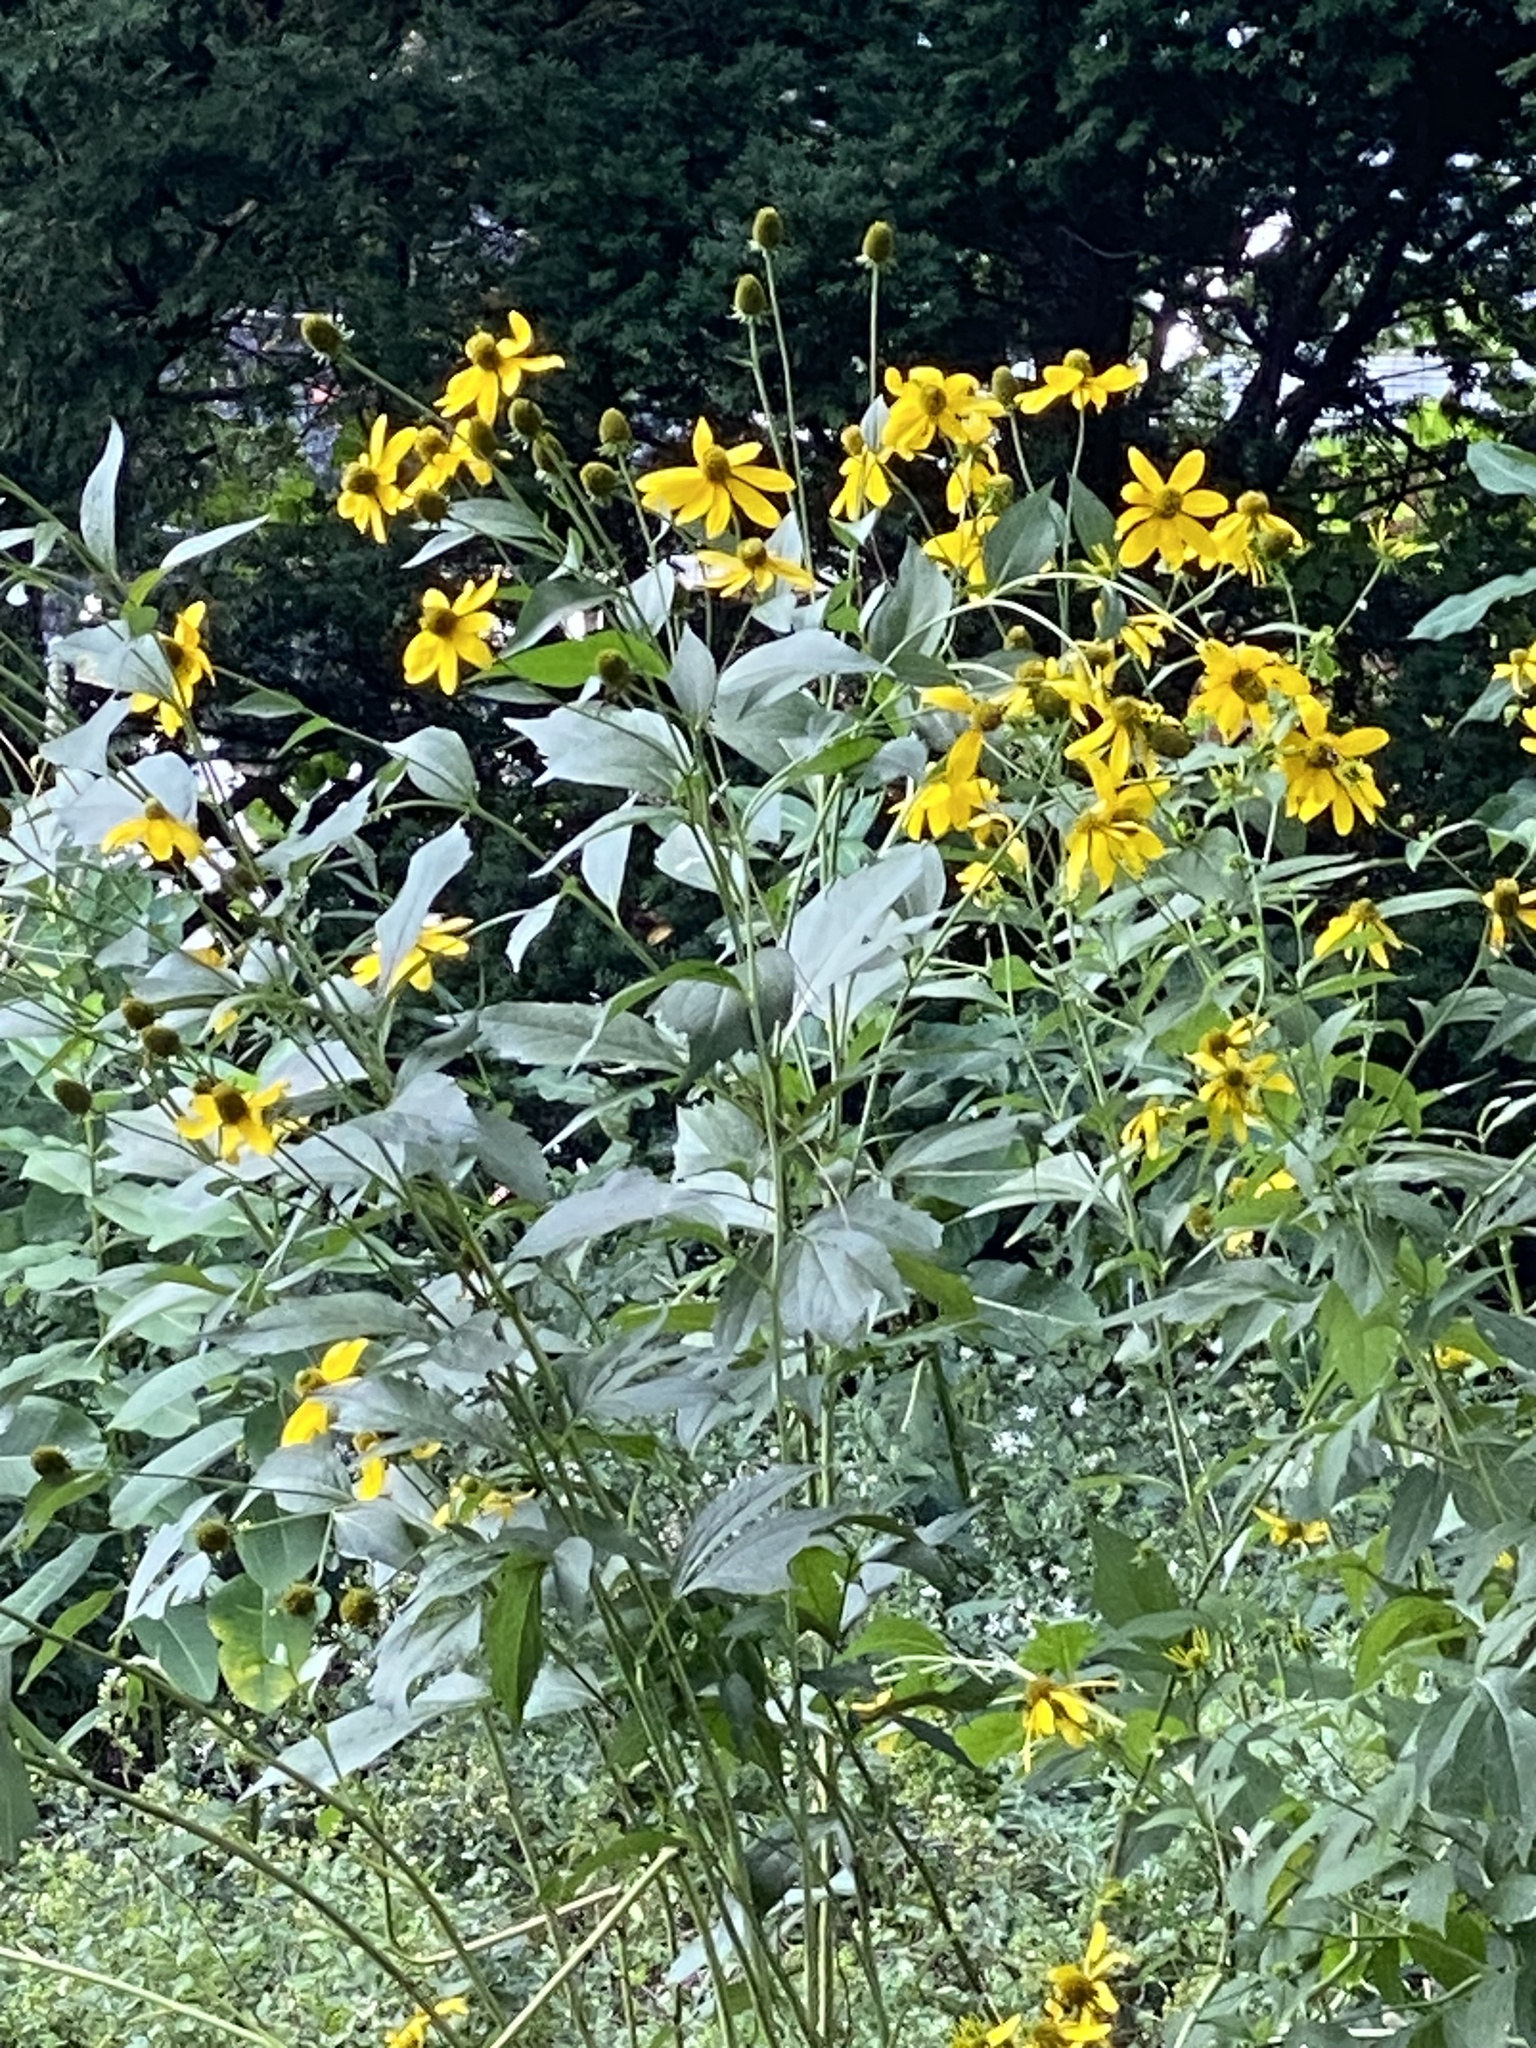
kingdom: Plantae
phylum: Tracheophyta
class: Magnoliopsida
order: Asterales
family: Asteraceae
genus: Rudbeckia
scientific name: Rudbeckia laciniata
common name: Coneflower
